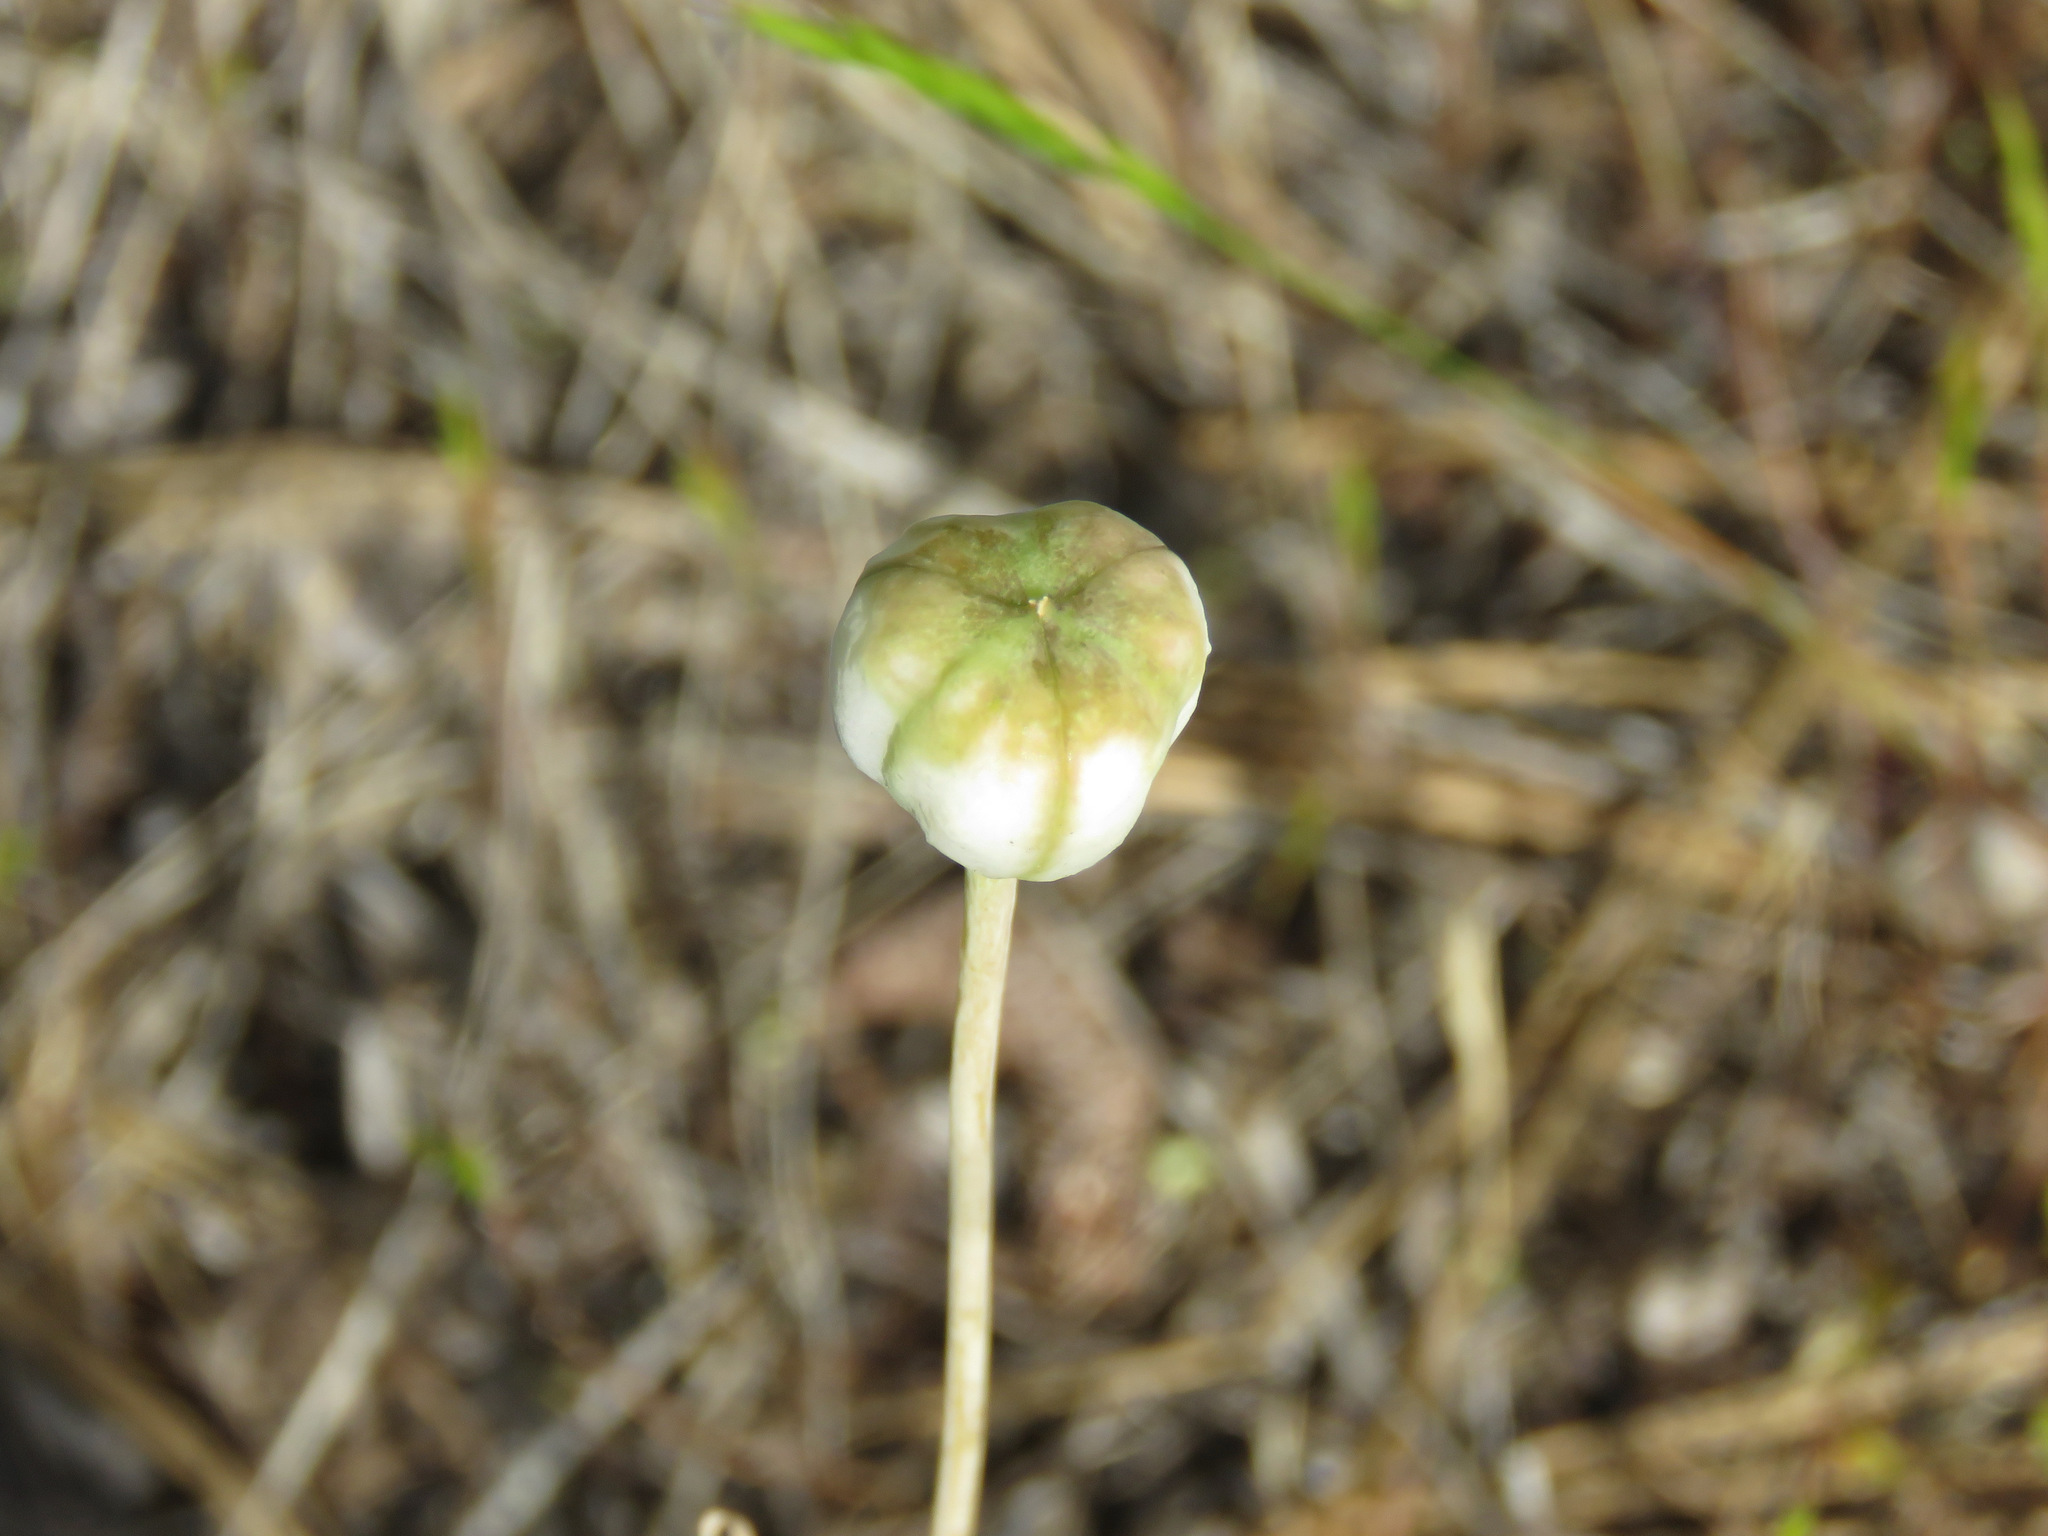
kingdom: Plantae
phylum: Tracheophyta
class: Liliopsida
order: Liliales
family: Liliaceae
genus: Fritillaria
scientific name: Fritillaria pudica
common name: Yellow fritillary
